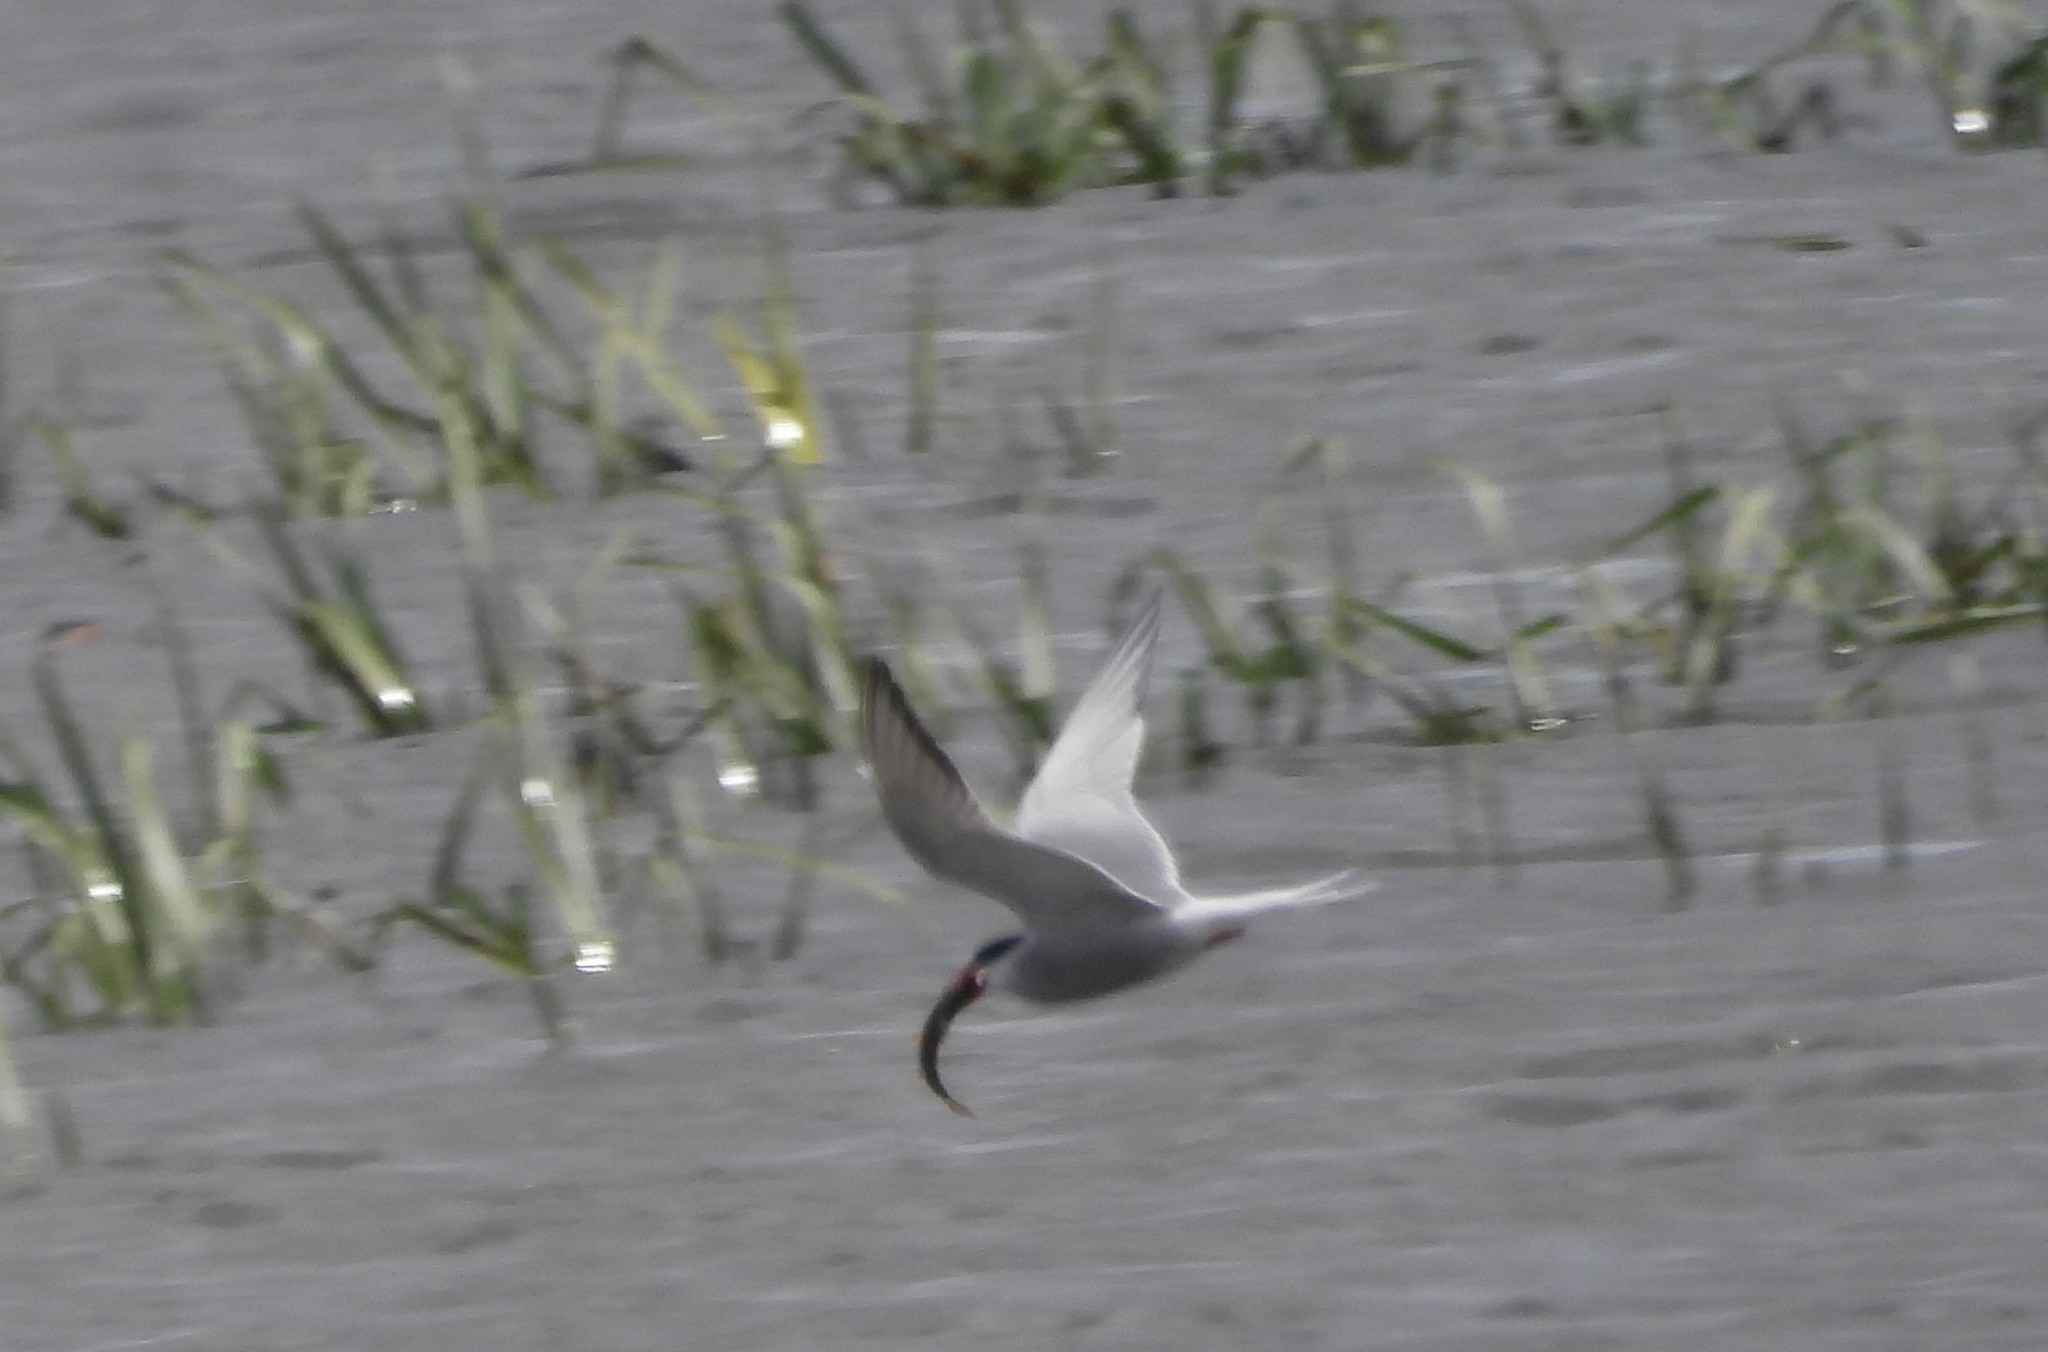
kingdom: Animalia
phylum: Chordata
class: Aves
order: Charadriiformes
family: Laridae
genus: Sterna
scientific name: Sterna hirundo
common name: Common tern
